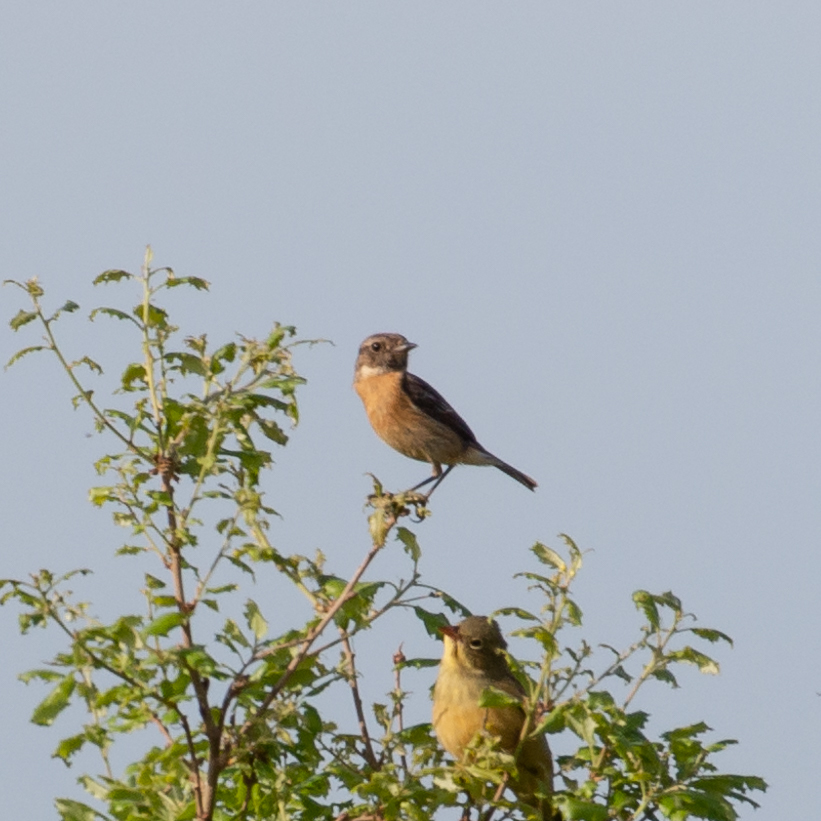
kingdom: Animalia
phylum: Chordata
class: Aves
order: Passeriformes
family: Muscicapidae
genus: Saxicola
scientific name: Saxicola rubicola
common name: European stonechat
